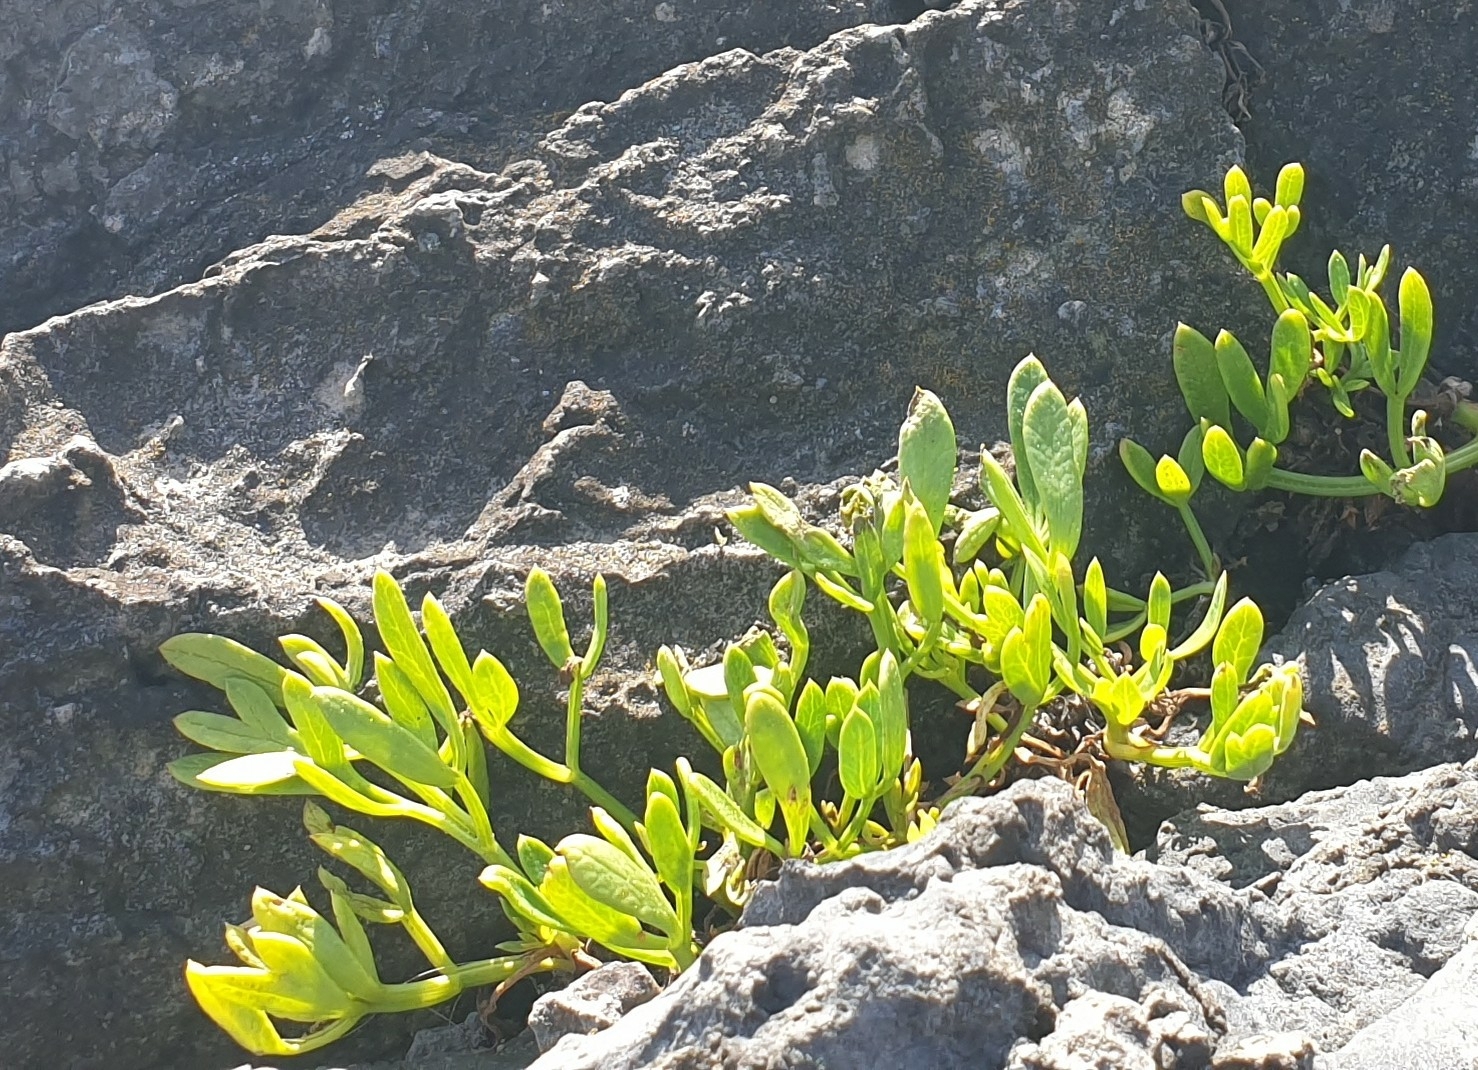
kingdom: Plantae
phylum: Tracheophyta
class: Magnoliopsida
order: Apiales
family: Apiaceae
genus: Crithmum
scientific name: Crithmum maritimum
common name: Rock samphire
